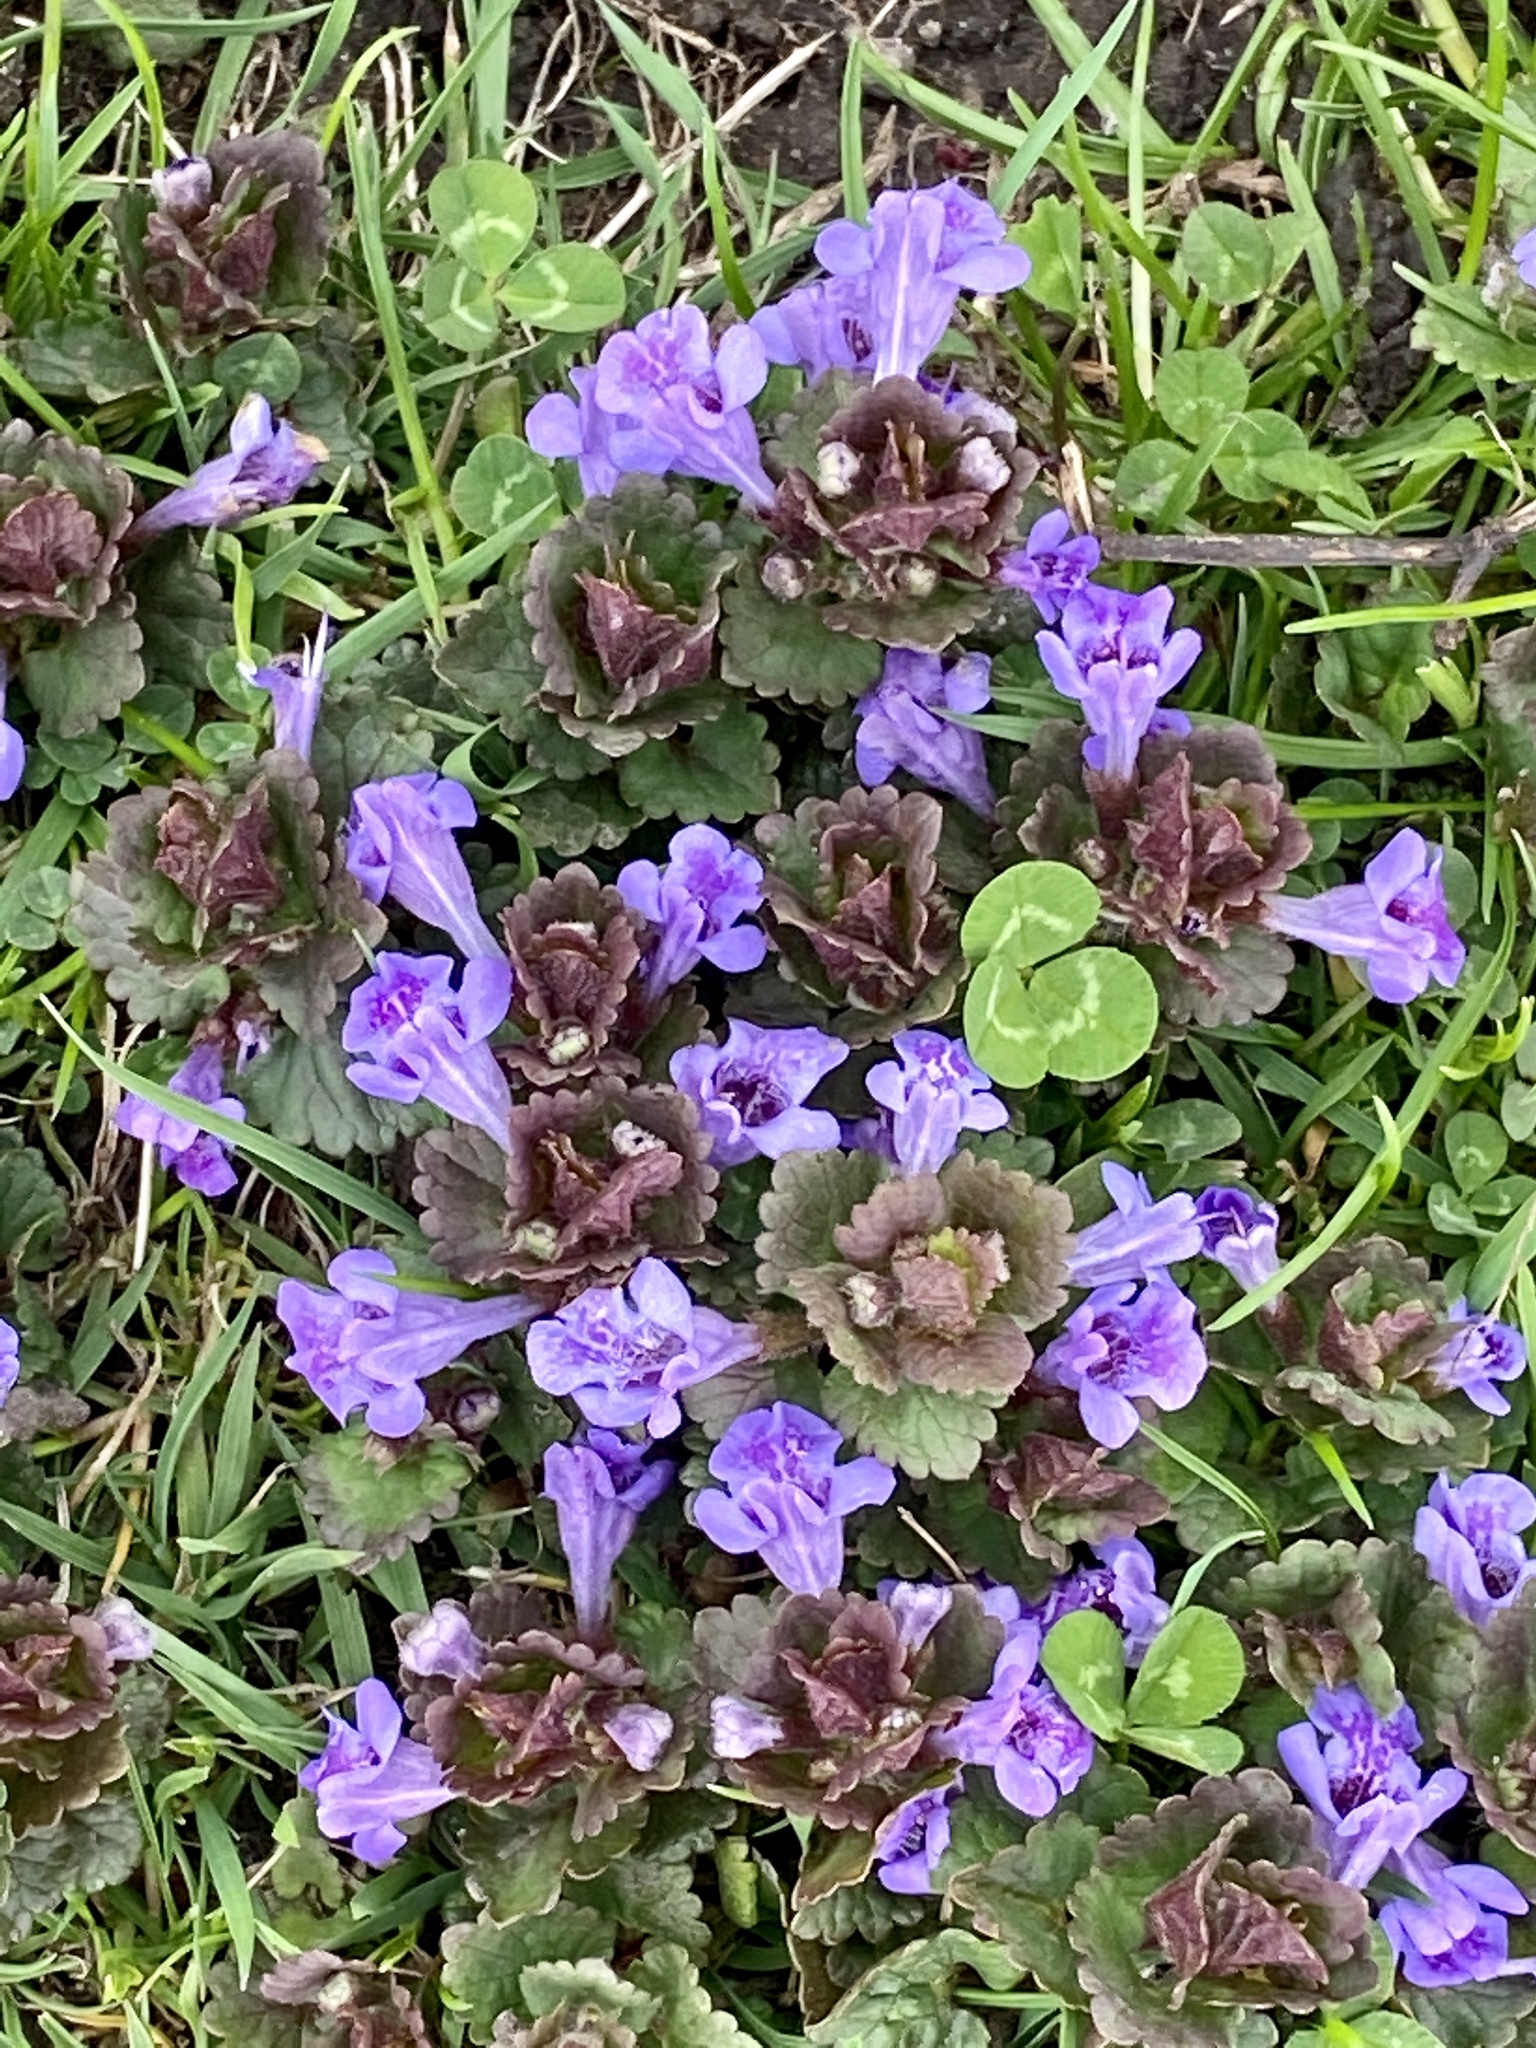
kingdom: Plantae
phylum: Tracheophyta
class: Magnoliopsida
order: Lamiales
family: Lamiaceae
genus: Glechoma
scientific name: Glechoma hederacea
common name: Ground ivy
